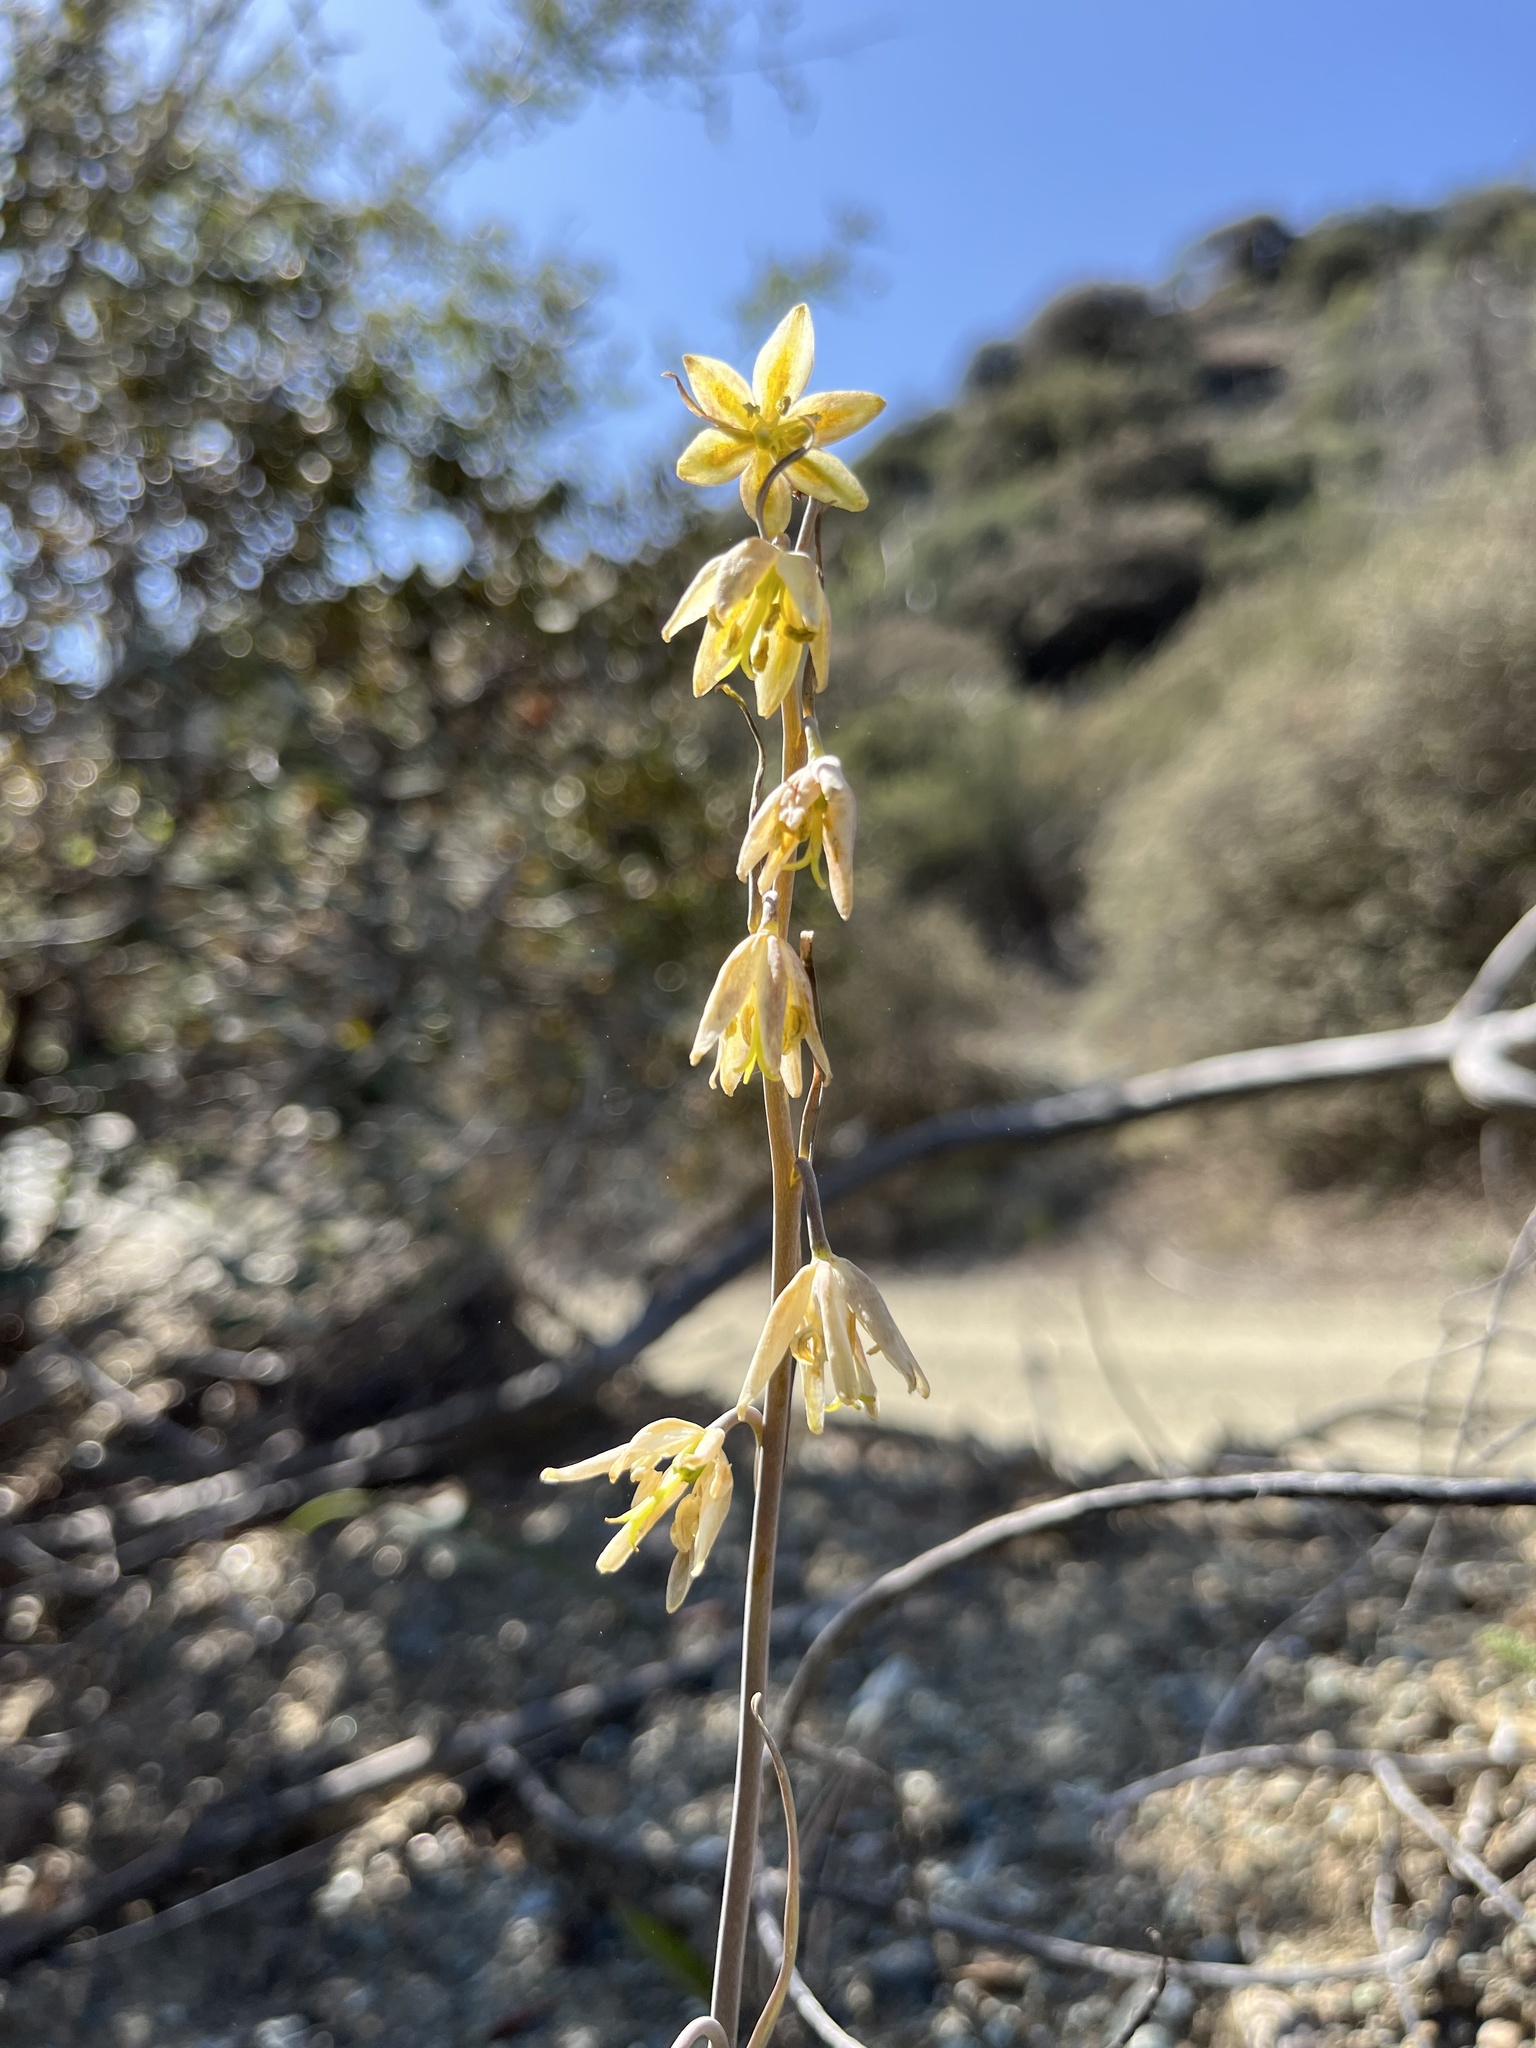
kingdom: Plantae
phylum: Tracheophyta
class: Liliopsida
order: Liliales
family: Liliaceae
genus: Fritillaria
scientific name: Fritillaria viridea
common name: San benito fritillary
